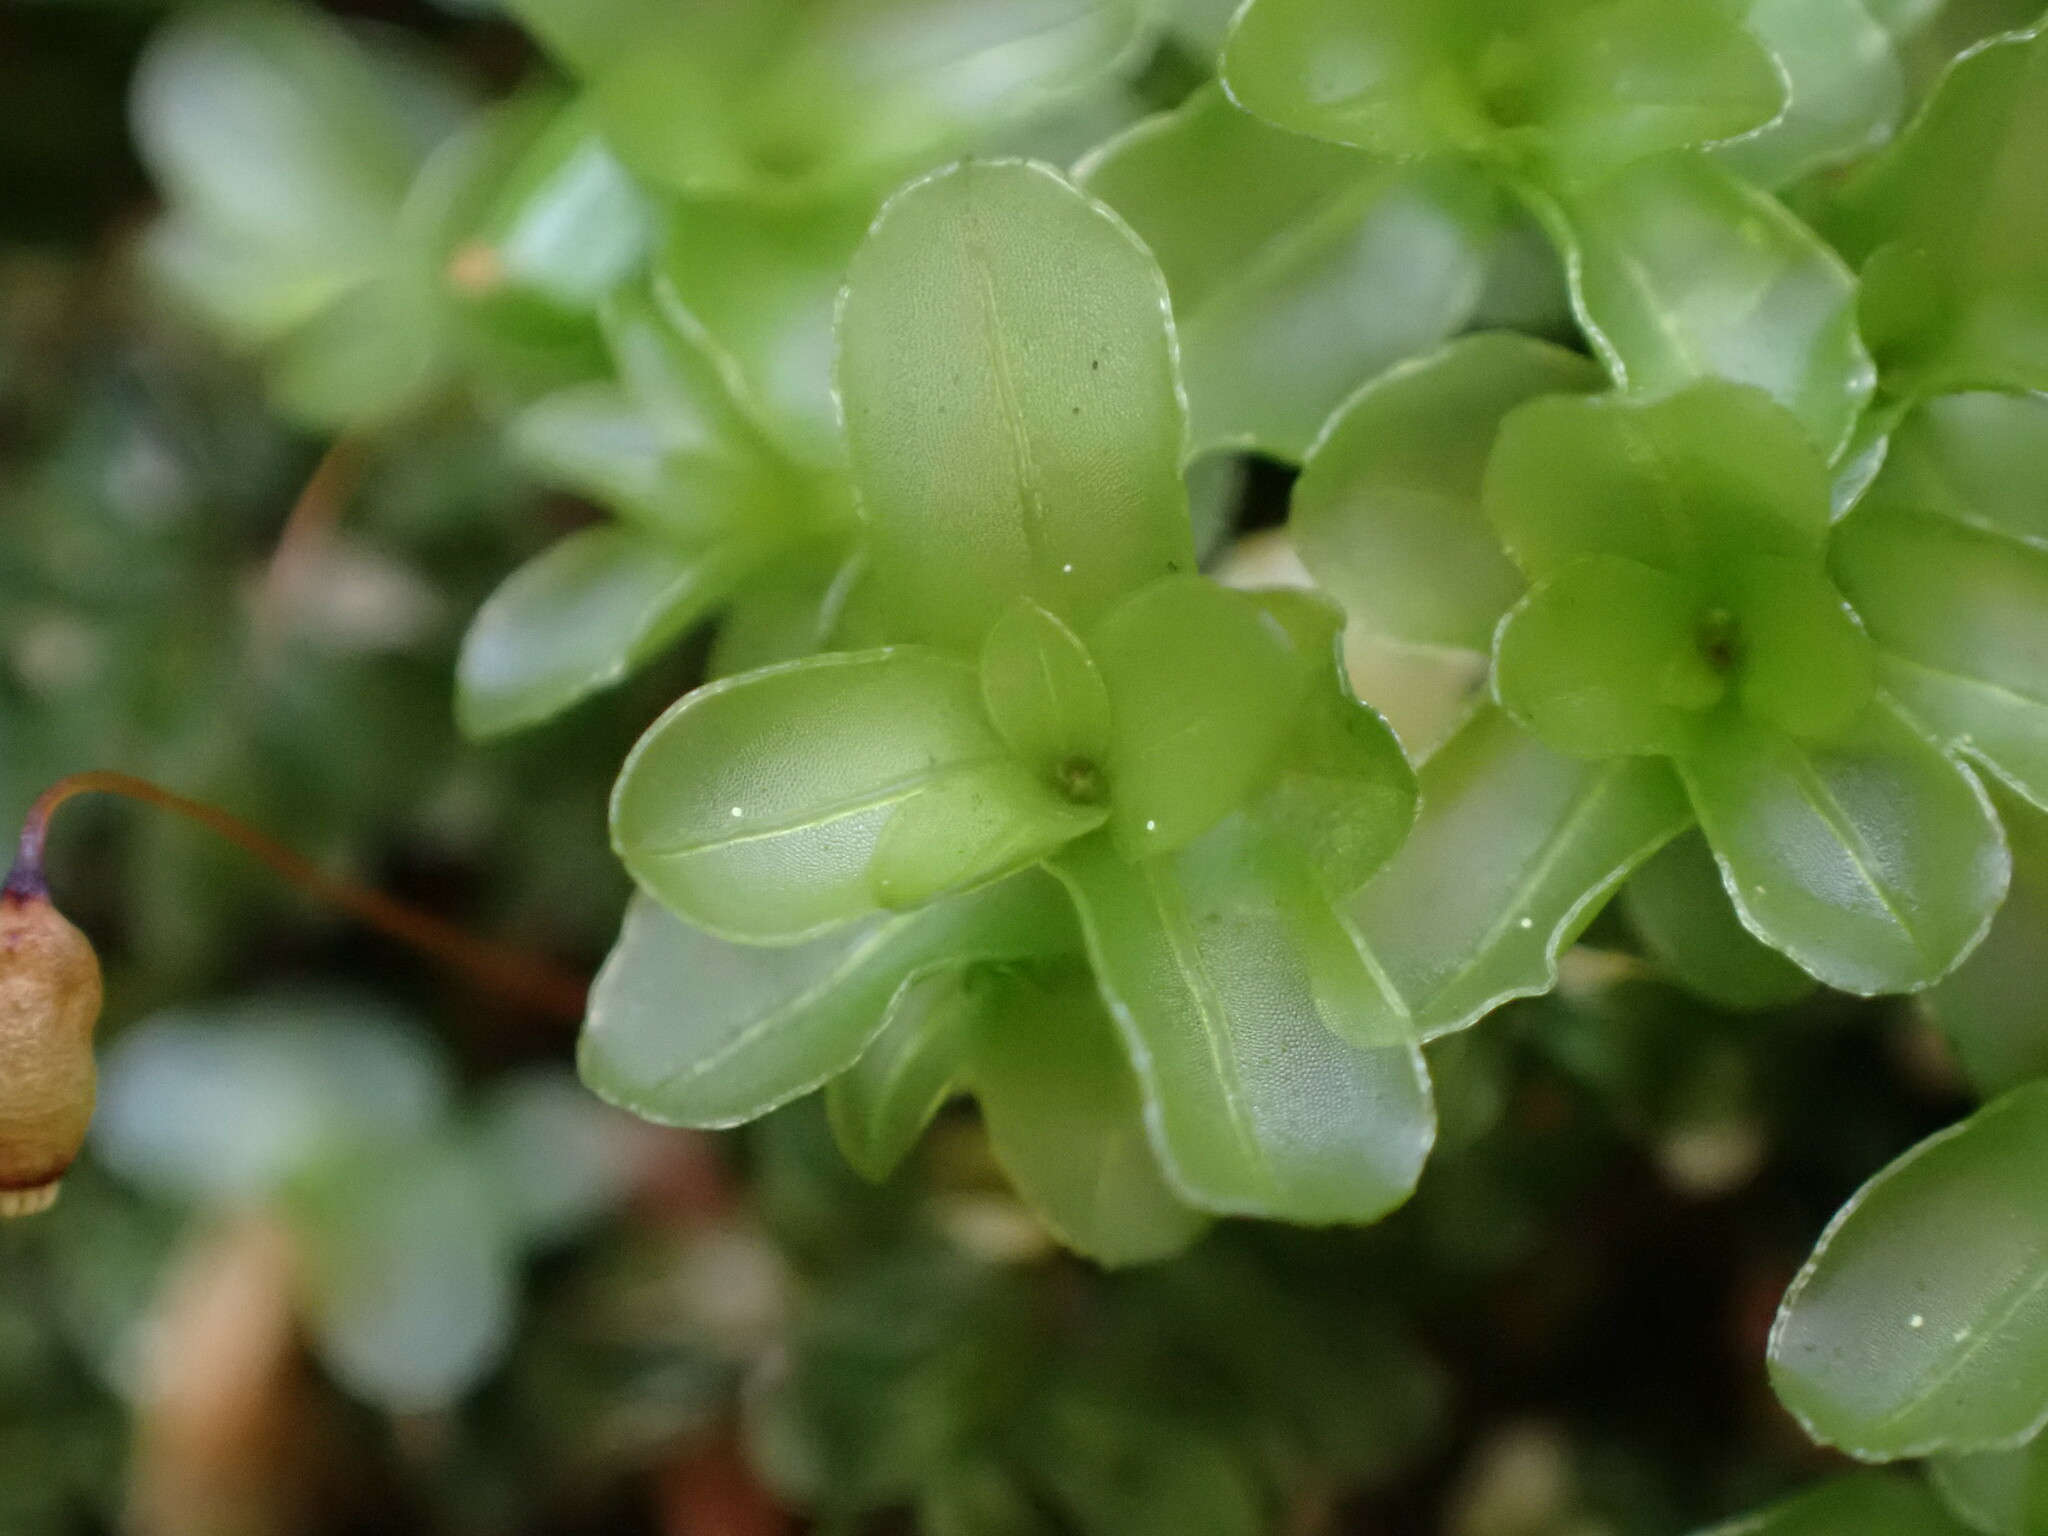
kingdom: Plantae
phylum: Bryophyta
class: Bryopsida
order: Bryales
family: Mniaceae
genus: Rhizomnium
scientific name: Rhizomnium glabrescens
